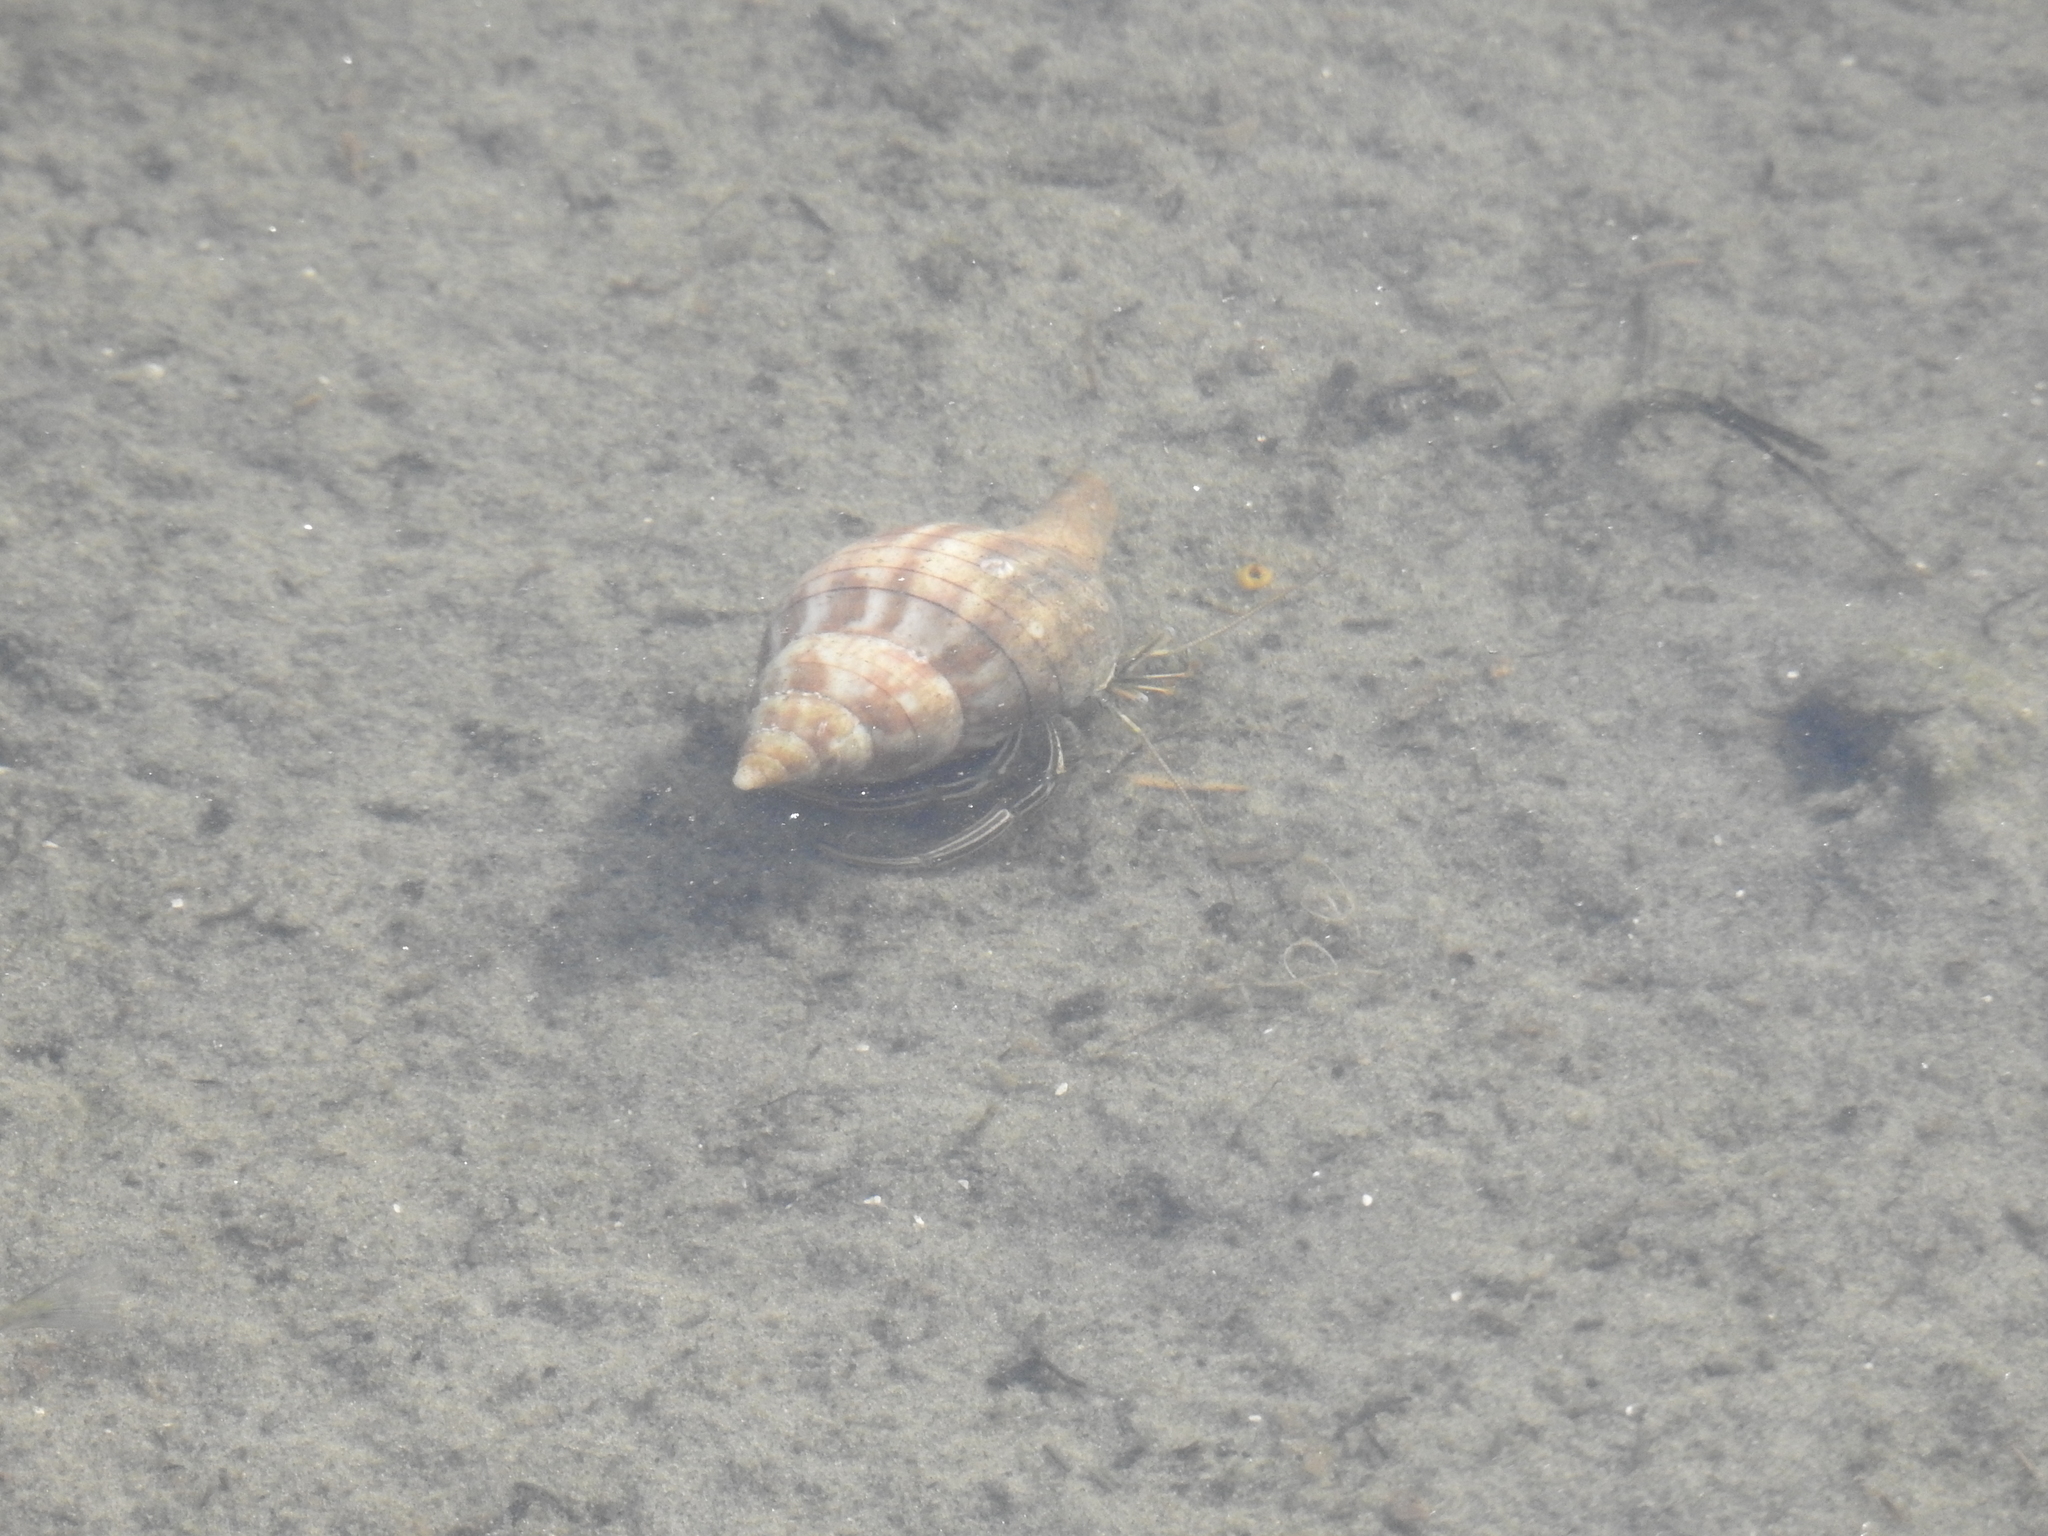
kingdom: Animalia
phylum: Arthropoda
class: Malacostraca
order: Decapoda
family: Diogenidae
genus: Clibanarius
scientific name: Clibanarius vittatus
